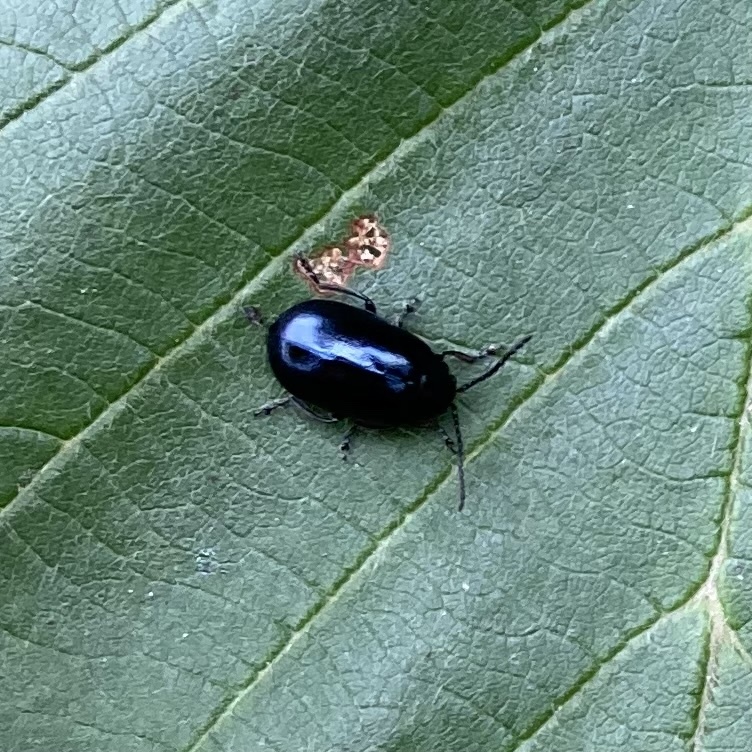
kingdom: Animalia
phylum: Arthropoda
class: Insecta
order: Coleoptera
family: Chrysomelidae
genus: Agelastica
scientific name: Agelastica alni
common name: Alder leaf beetle
